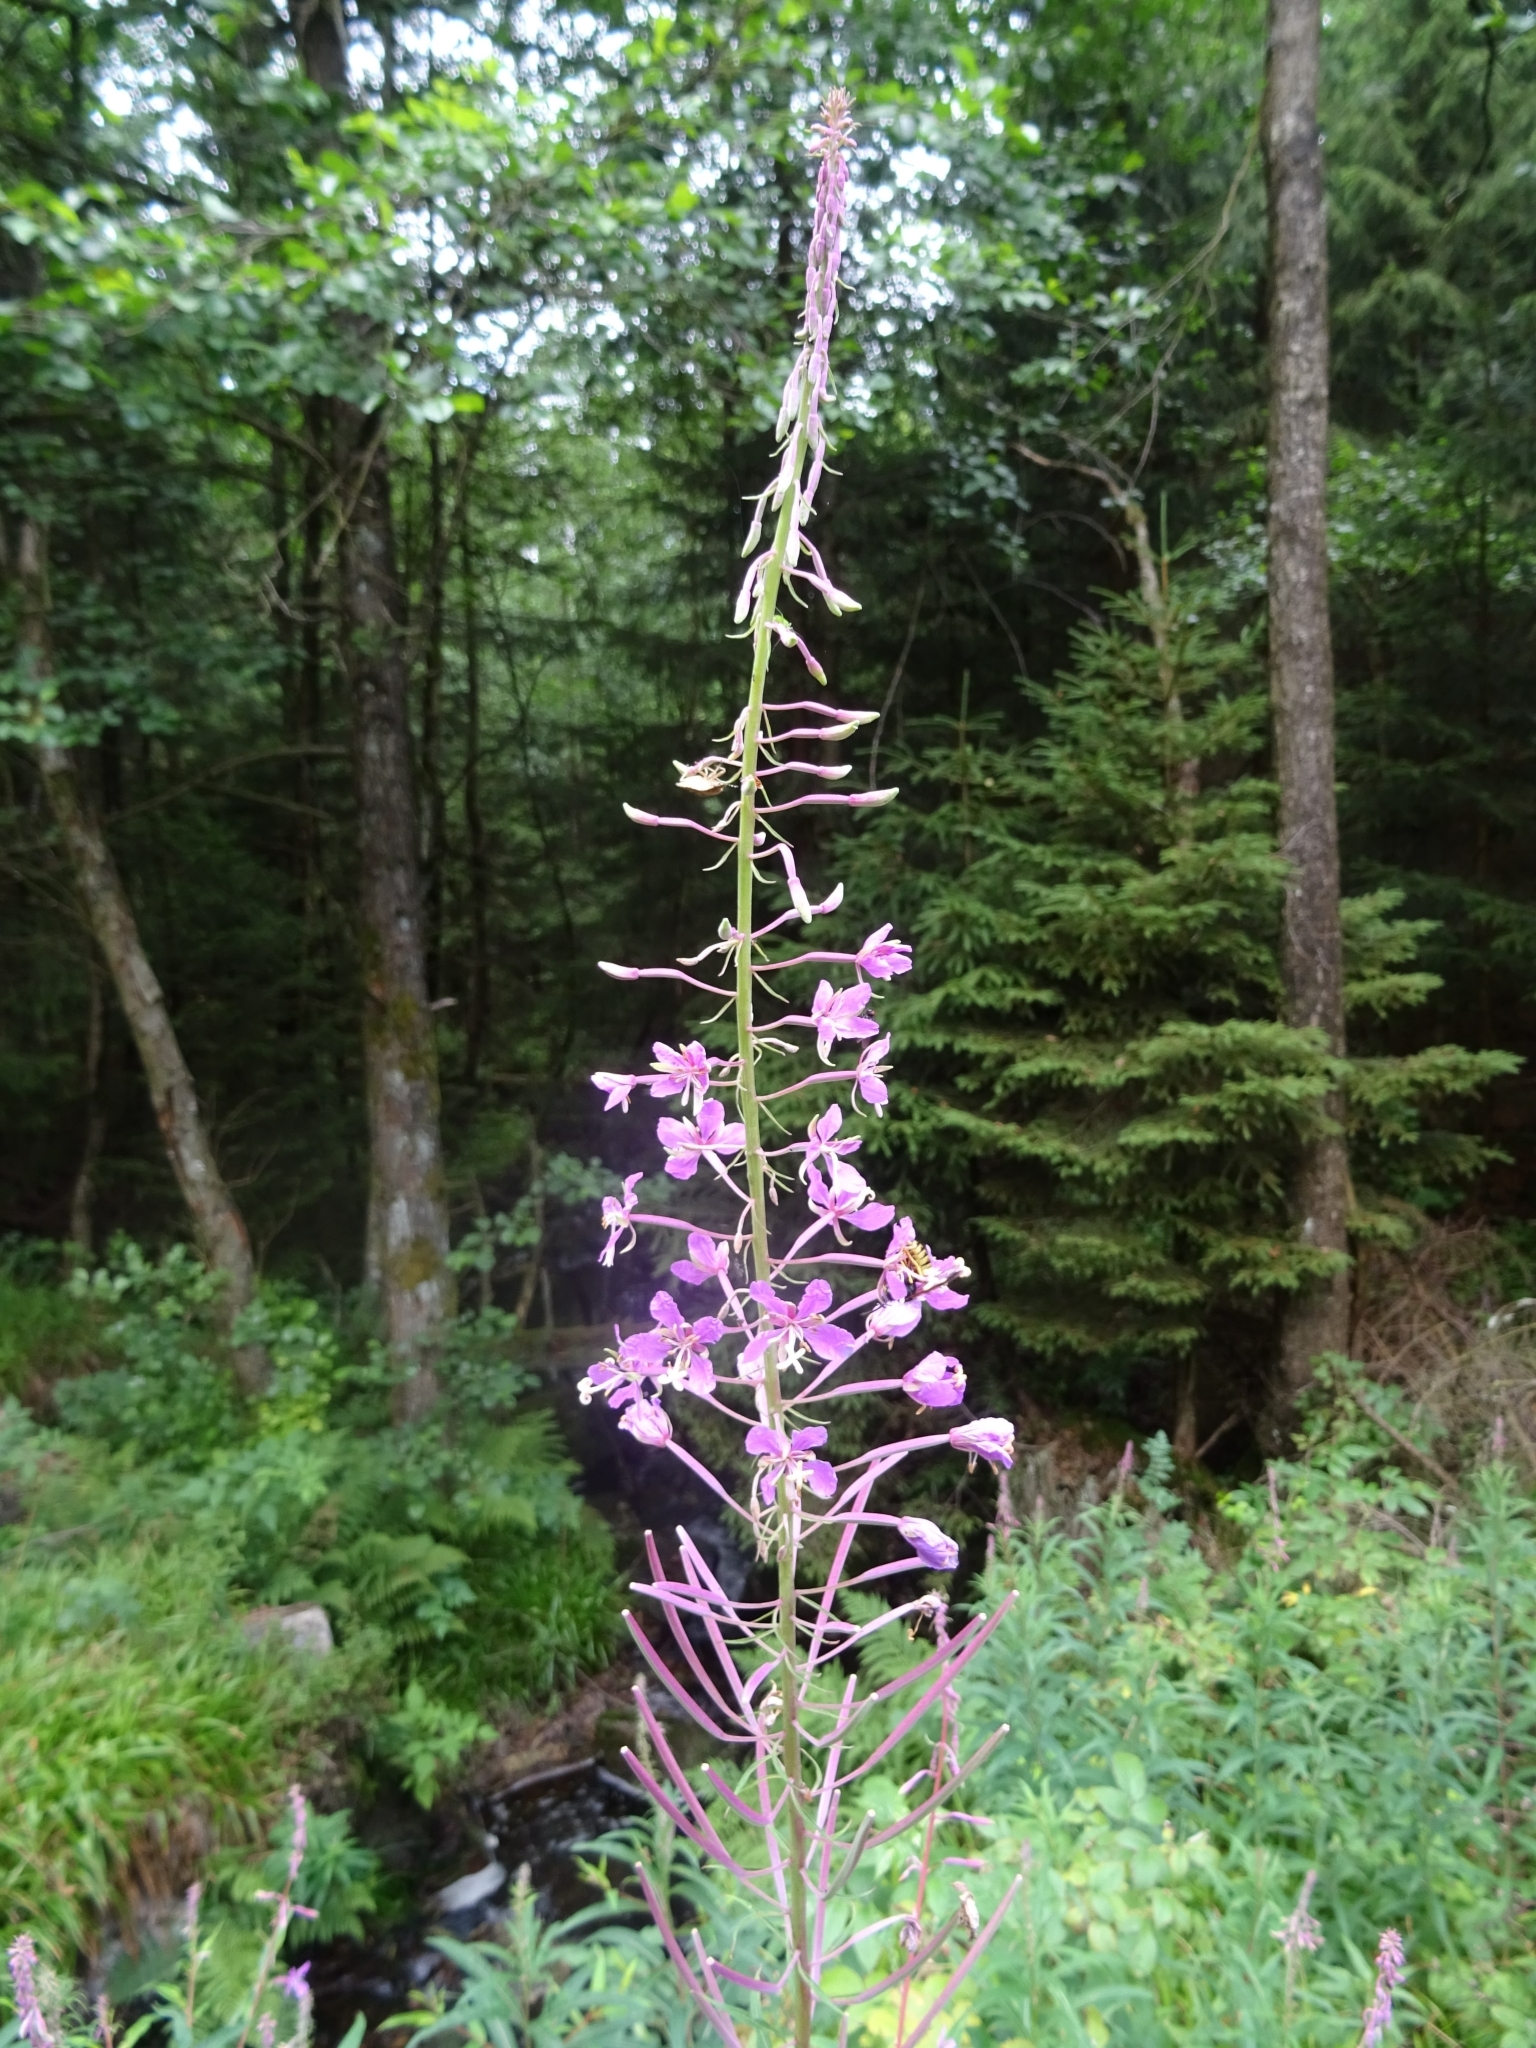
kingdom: Plantae
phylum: Tracheophyta
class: Magnoliopsida
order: Myrtales
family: Onagraceae
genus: Chamaenerion
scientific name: Chamaenerion angustifolium
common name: Fireweed
